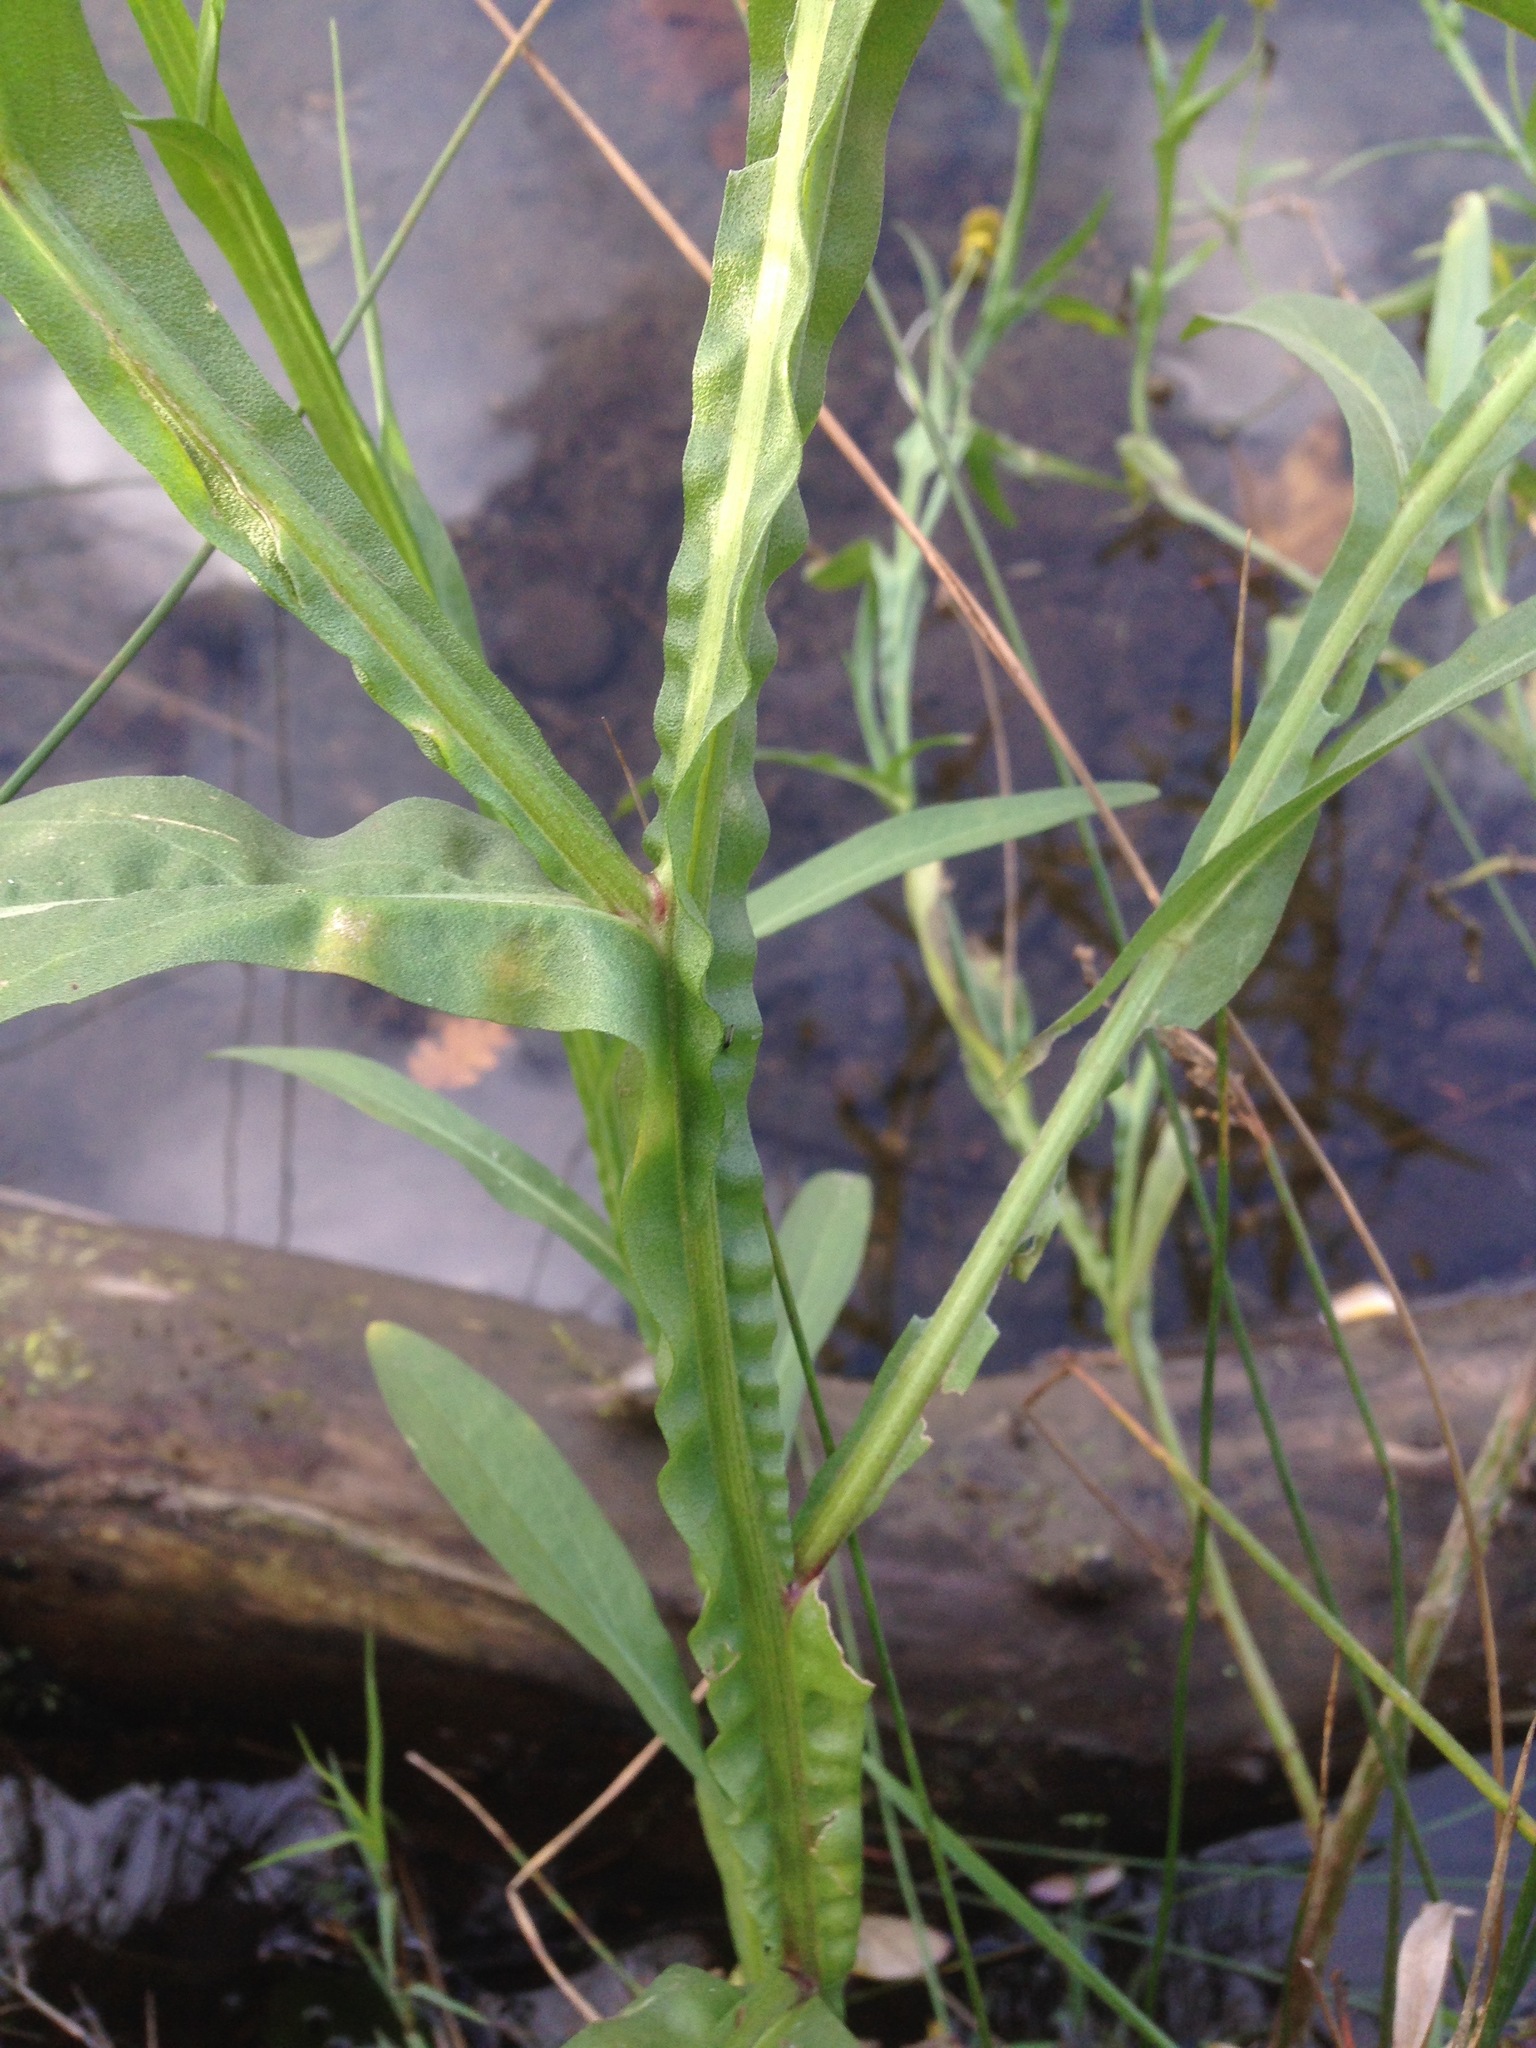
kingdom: Plantae
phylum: Tracheophyta
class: Magnoliopsida
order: Asterales
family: Asteraceae
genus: Helenium
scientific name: Helenium puberulum
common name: Sneezewort
